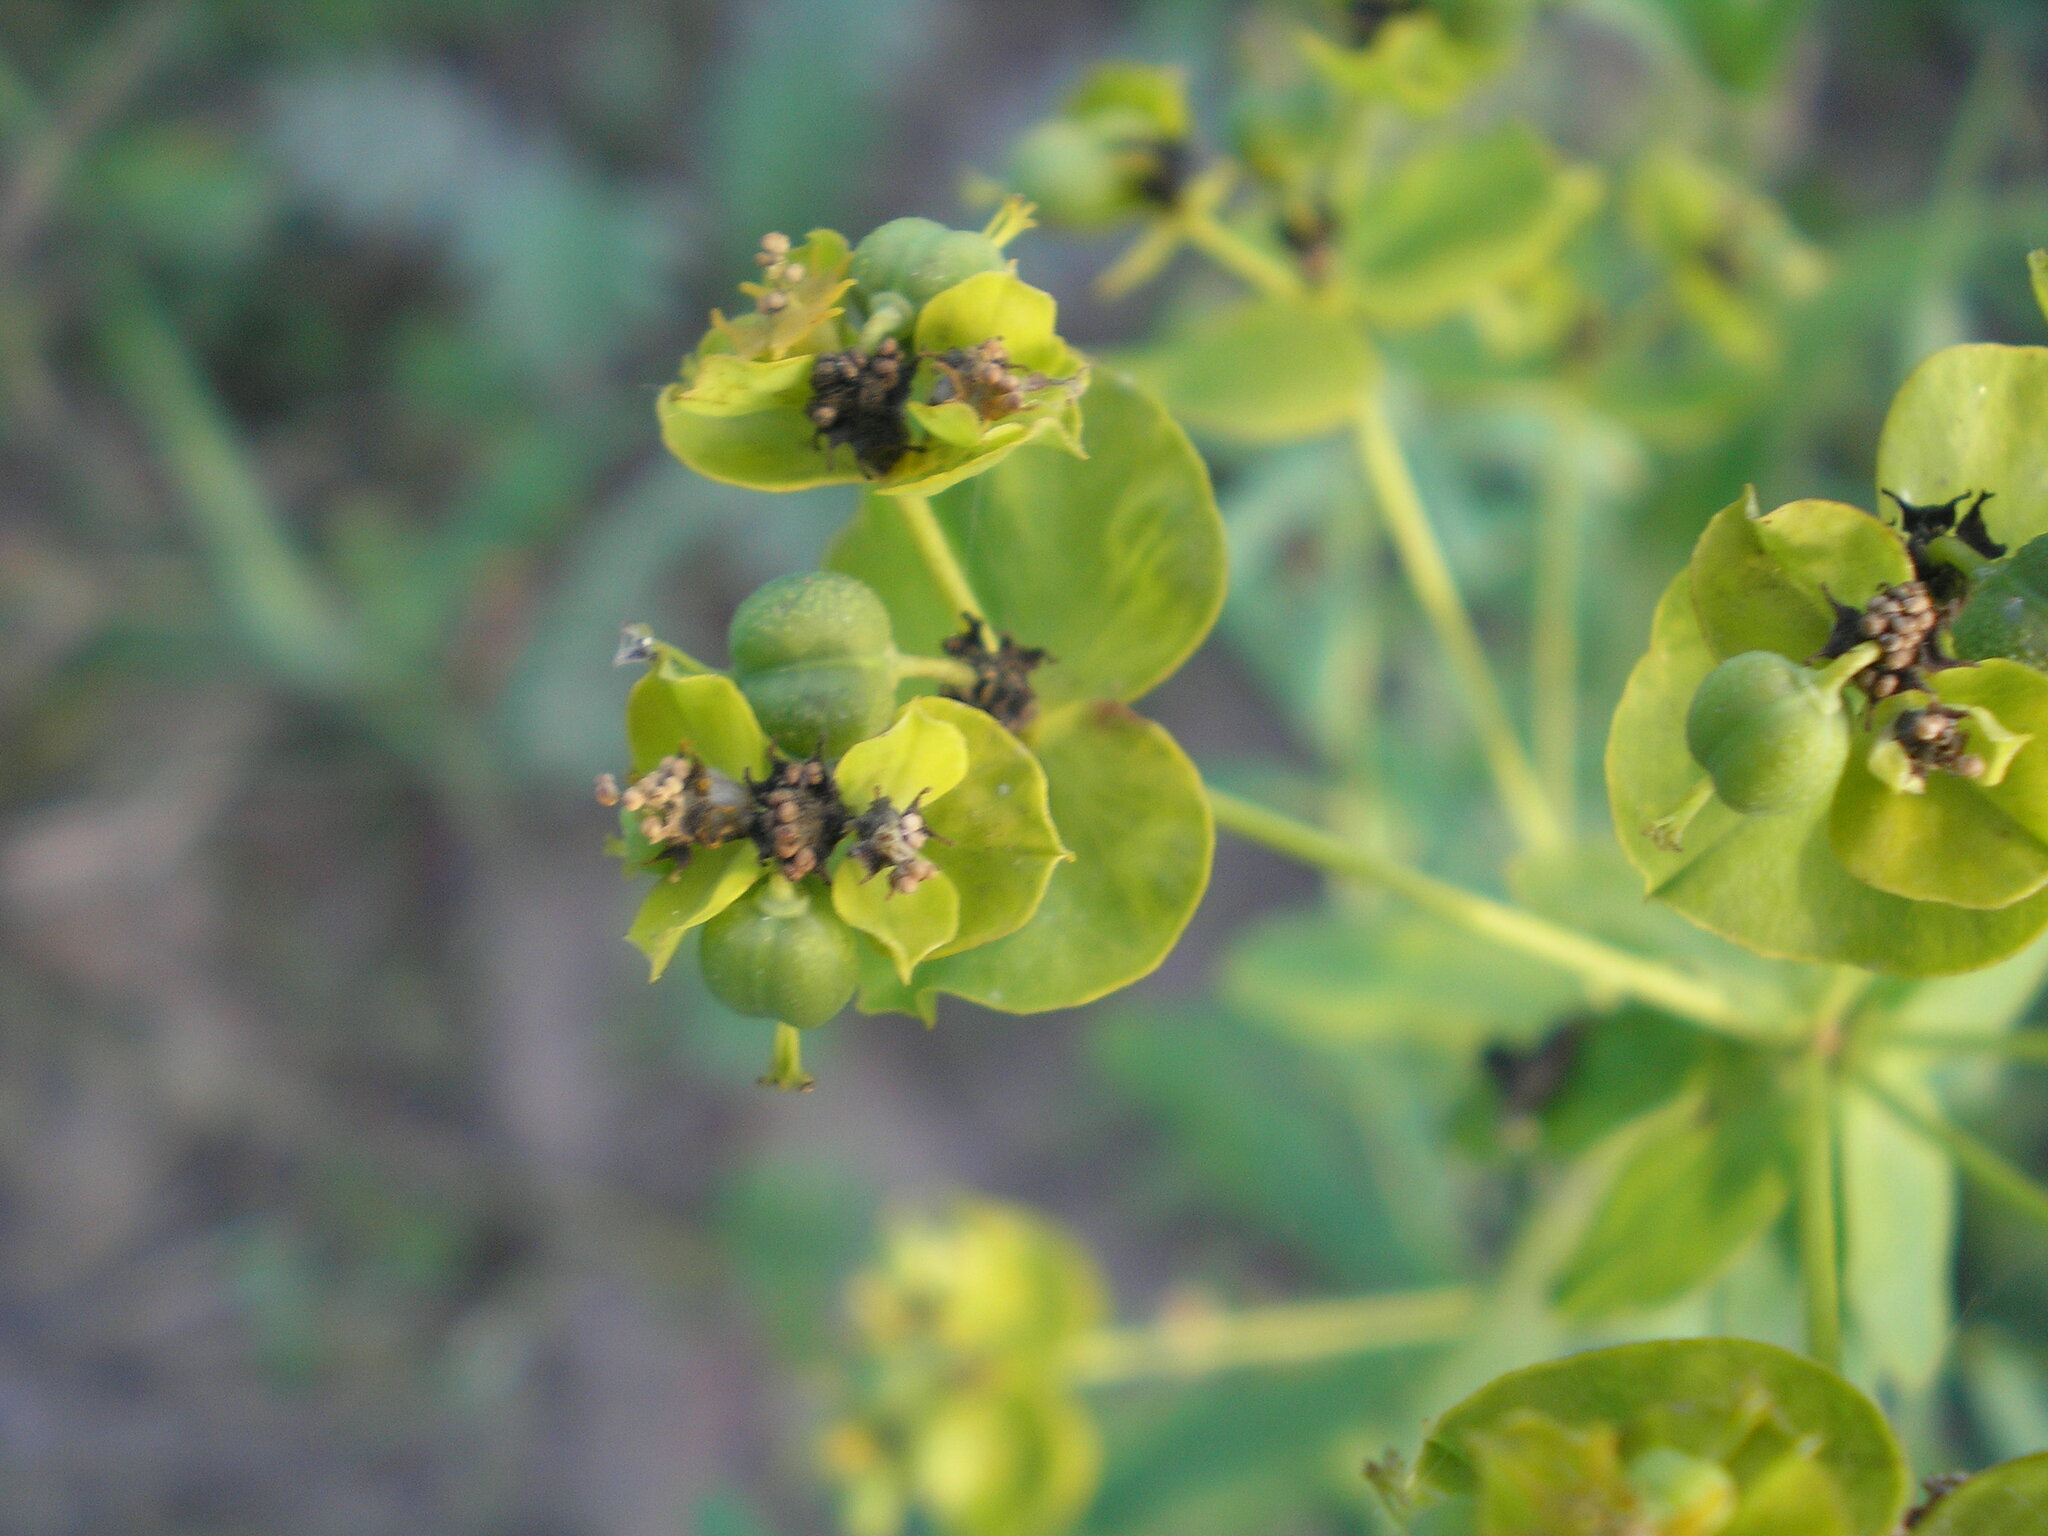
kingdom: Plantae
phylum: Tracheophyta
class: Magnoliopsida
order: Malpighiales
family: Euphorbiaceae
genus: Euphorbia
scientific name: Euphorbia virgata
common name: Leafy spurge
